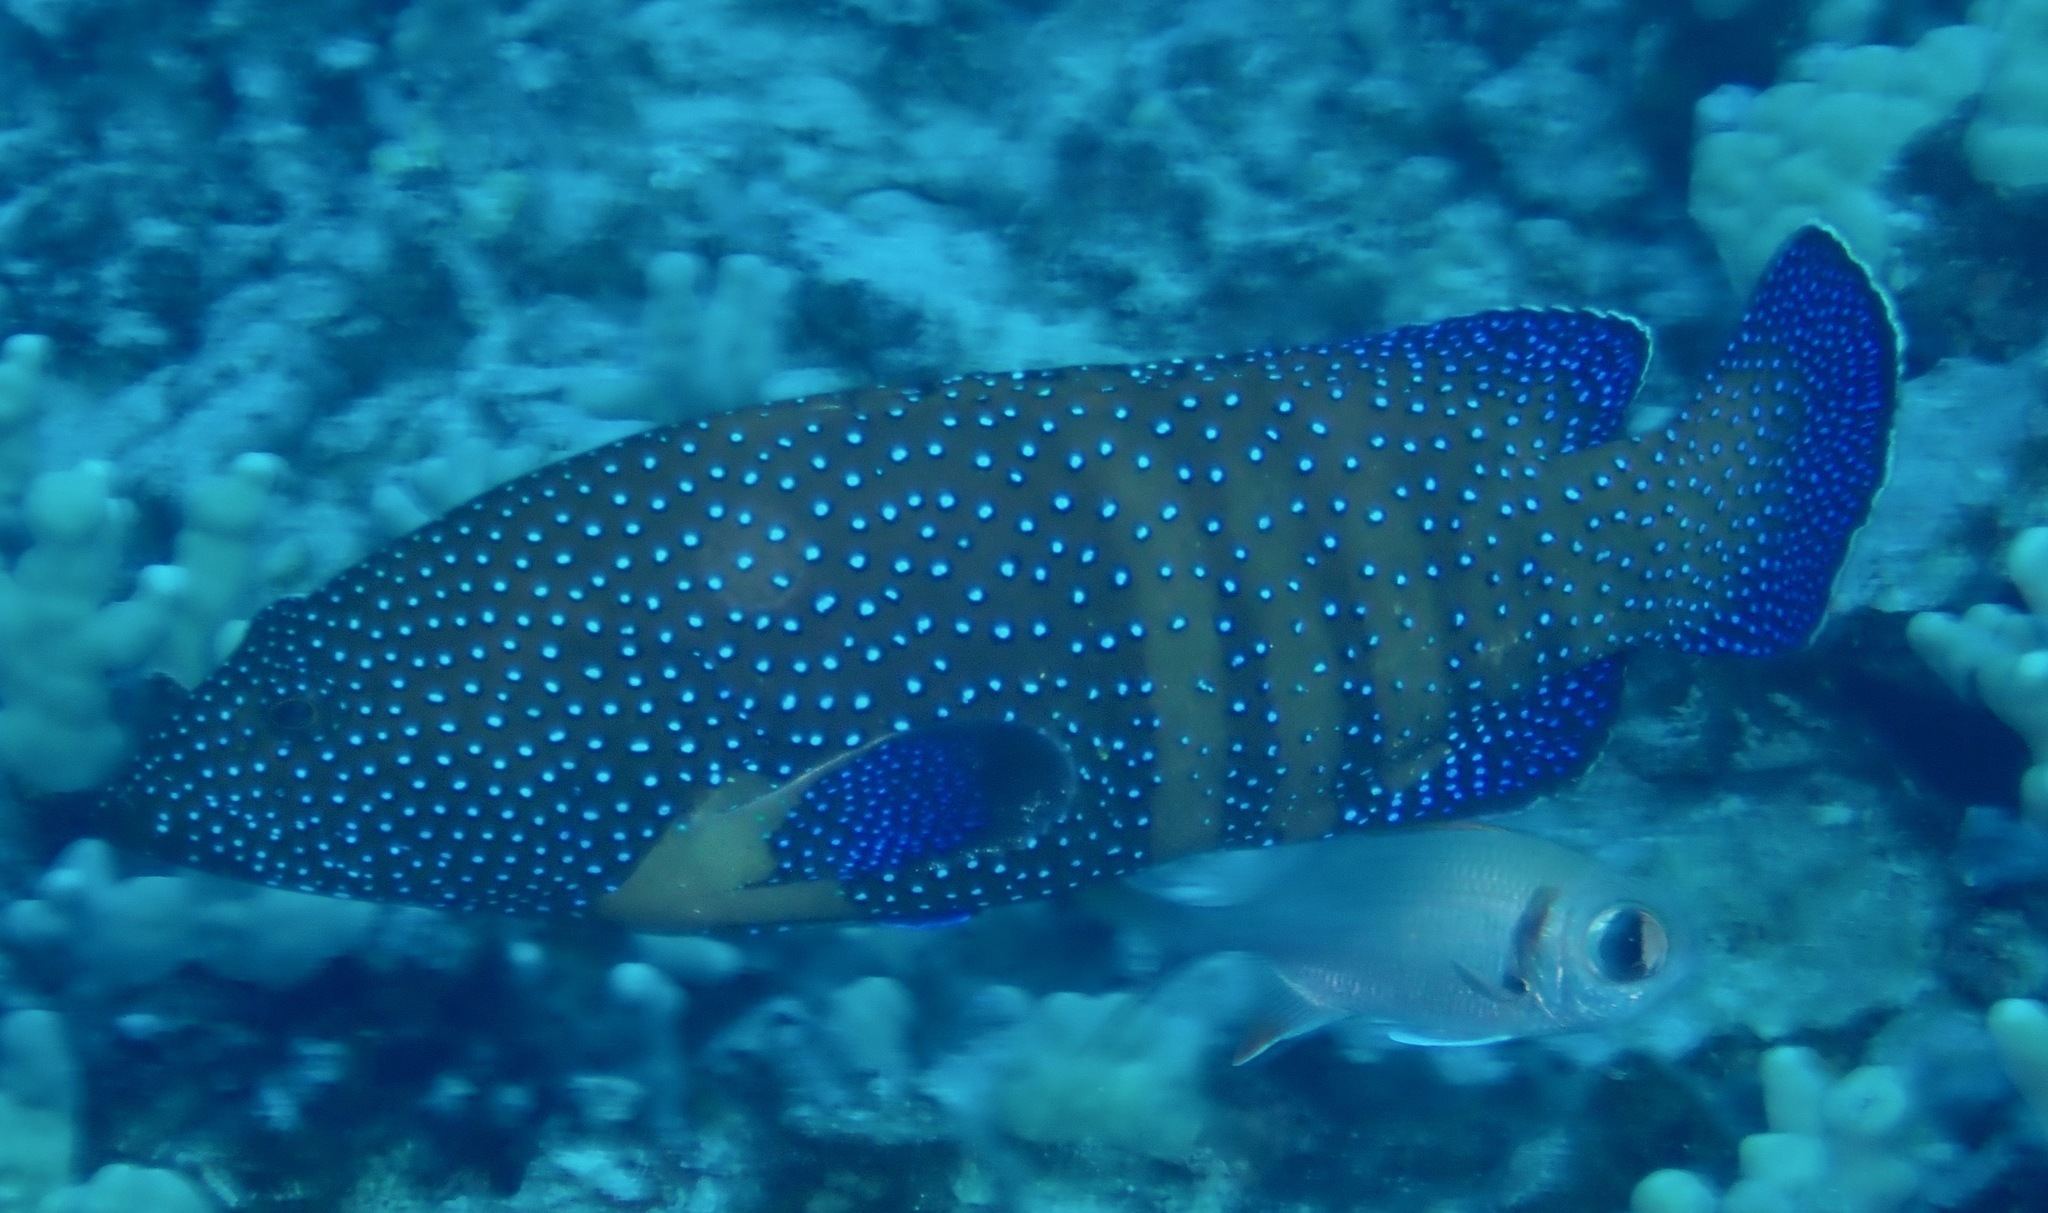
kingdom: Animalia
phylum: Chordata
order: Perciformes
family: Serranidae
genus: Cephalopholis
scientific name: Cephalopholis argus
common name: Peacock grouper
